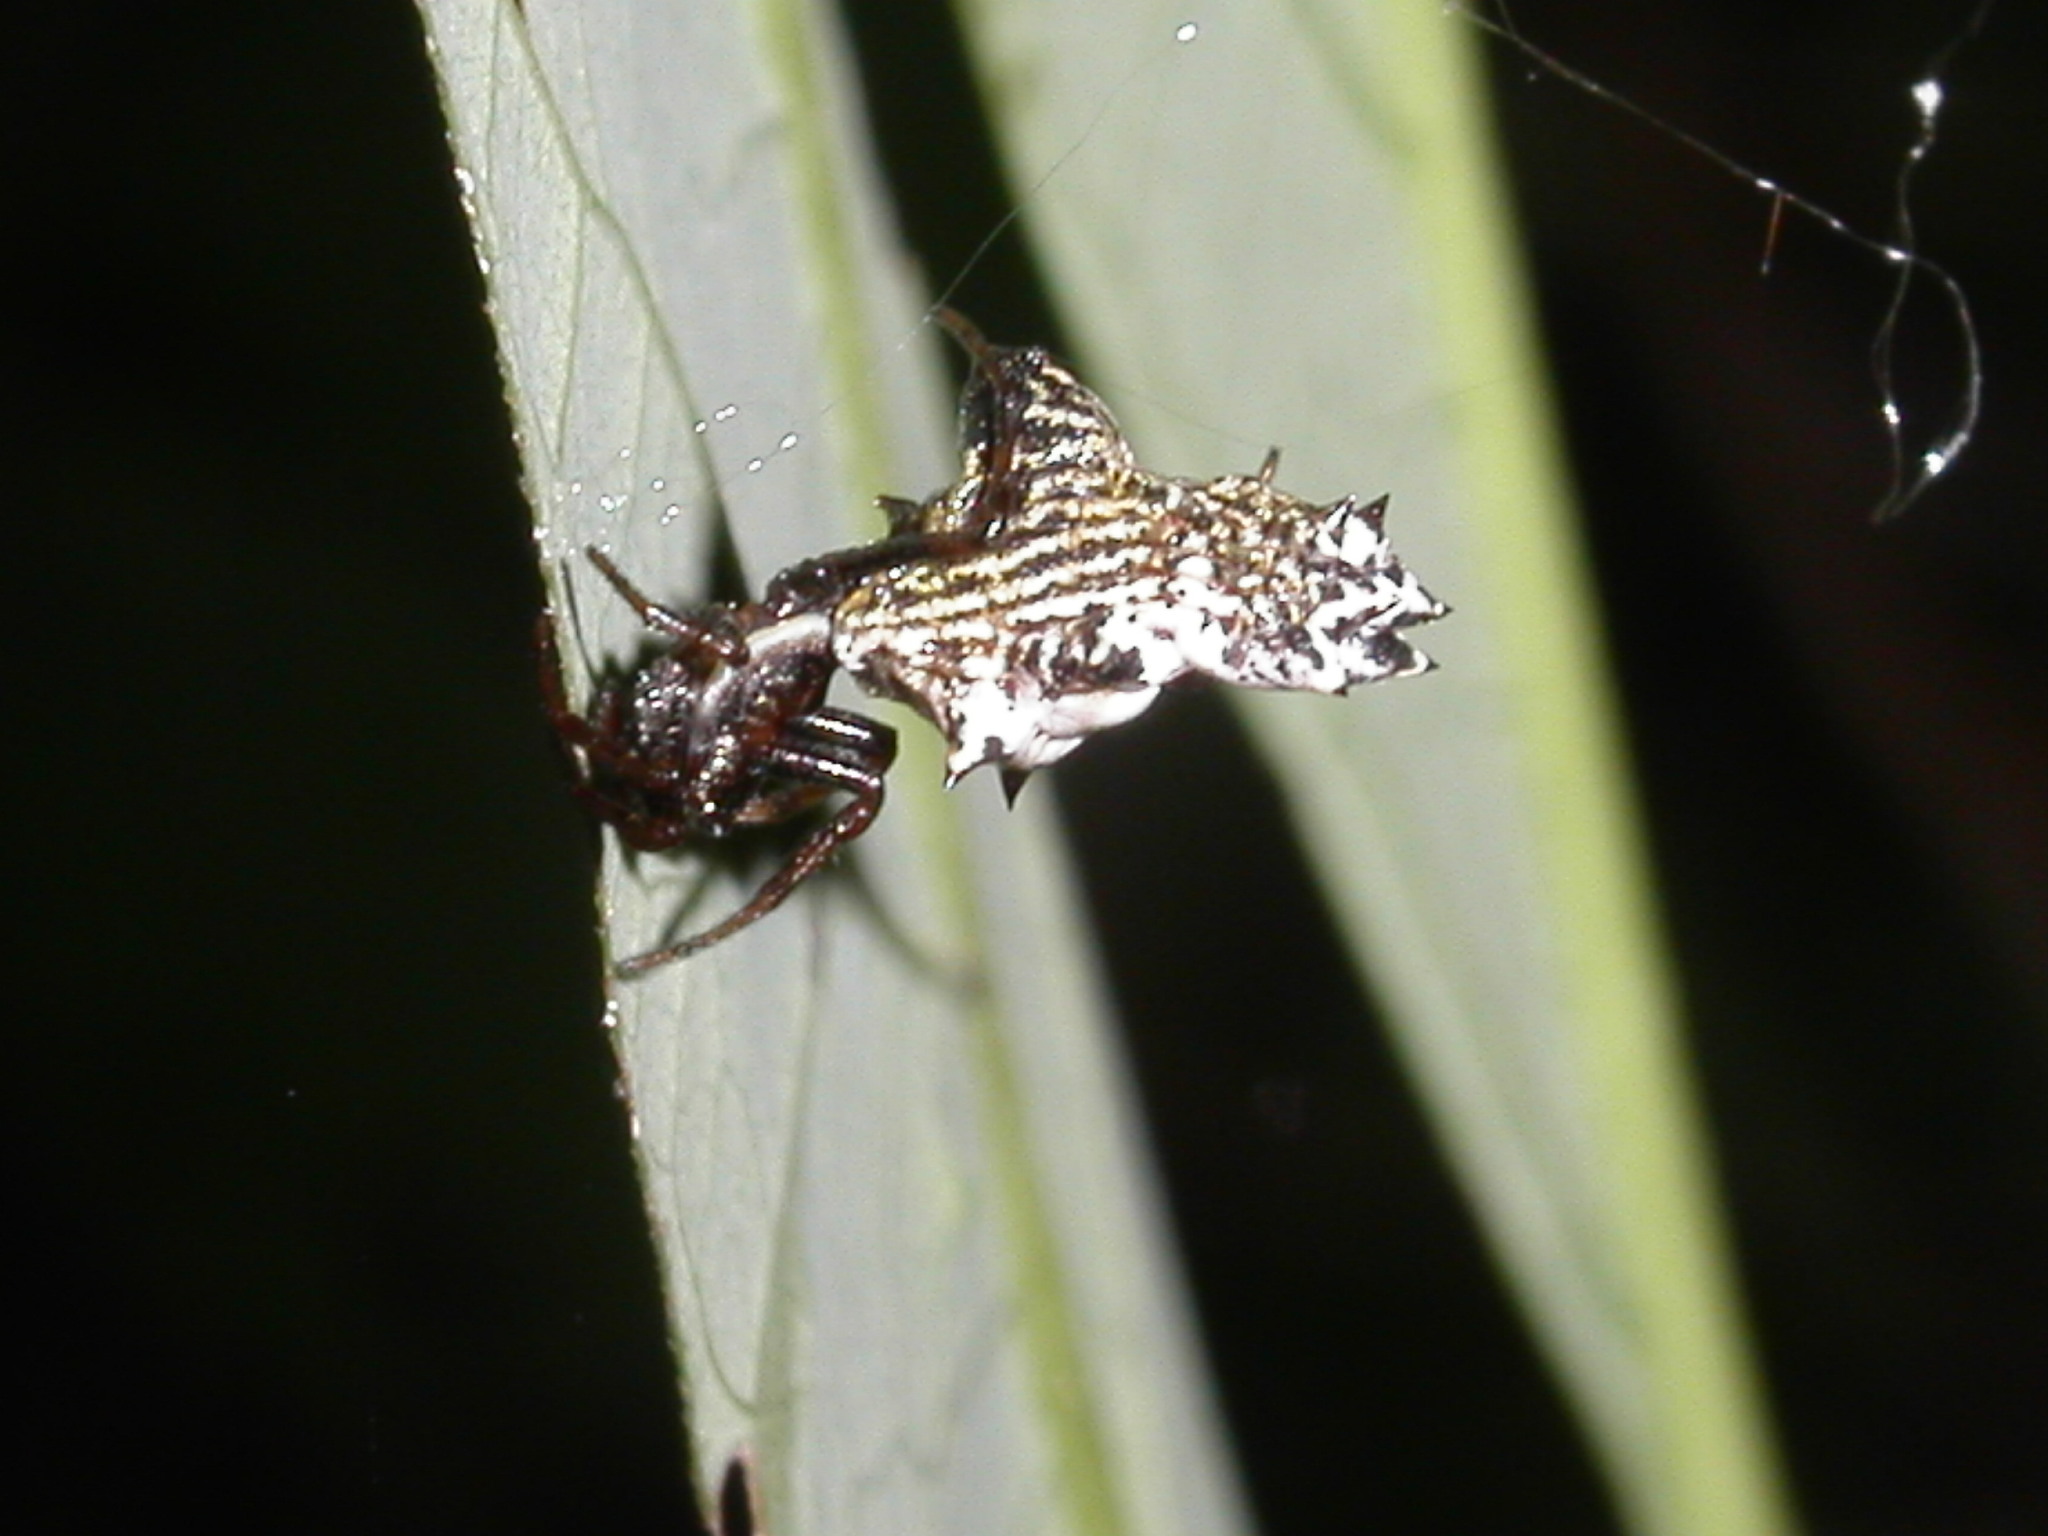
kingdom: Animalia
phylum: Arthropoda
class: Arachnida
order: Araneae
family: Araneidae
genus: Micrathena
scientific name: Micrathena gracilis
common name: Orb weavers
